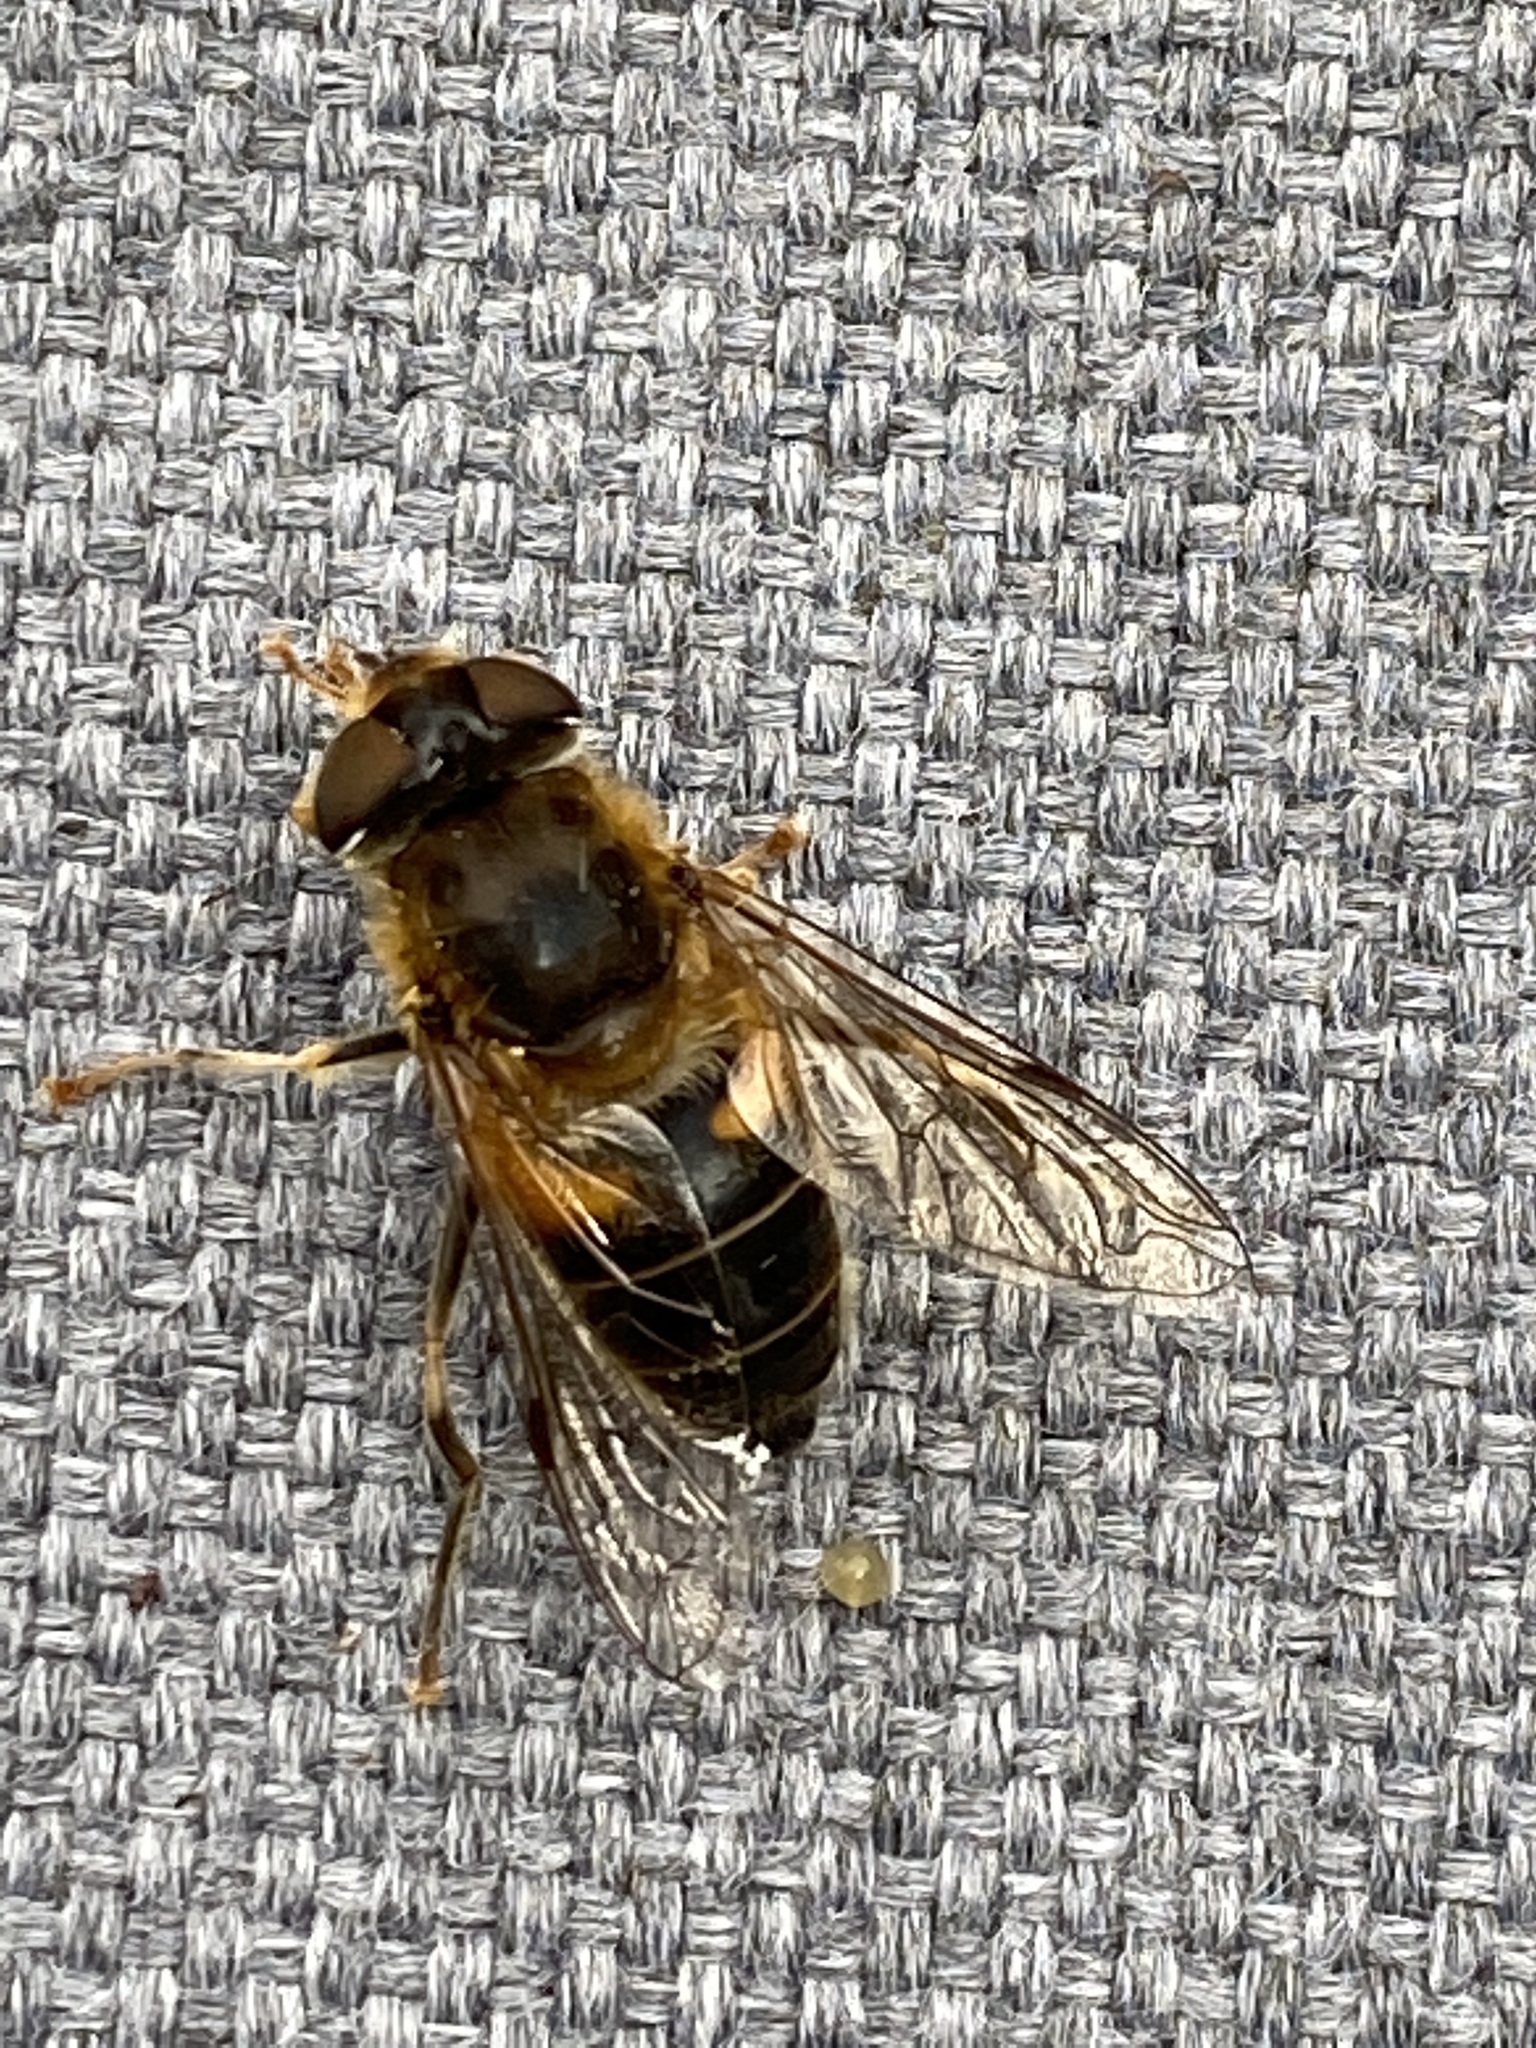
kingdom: Animalia
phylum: Arthropoda
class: Insecta
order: Diptera
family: Syrphidae
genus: Eristalis
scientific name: Eristalis pertinax
